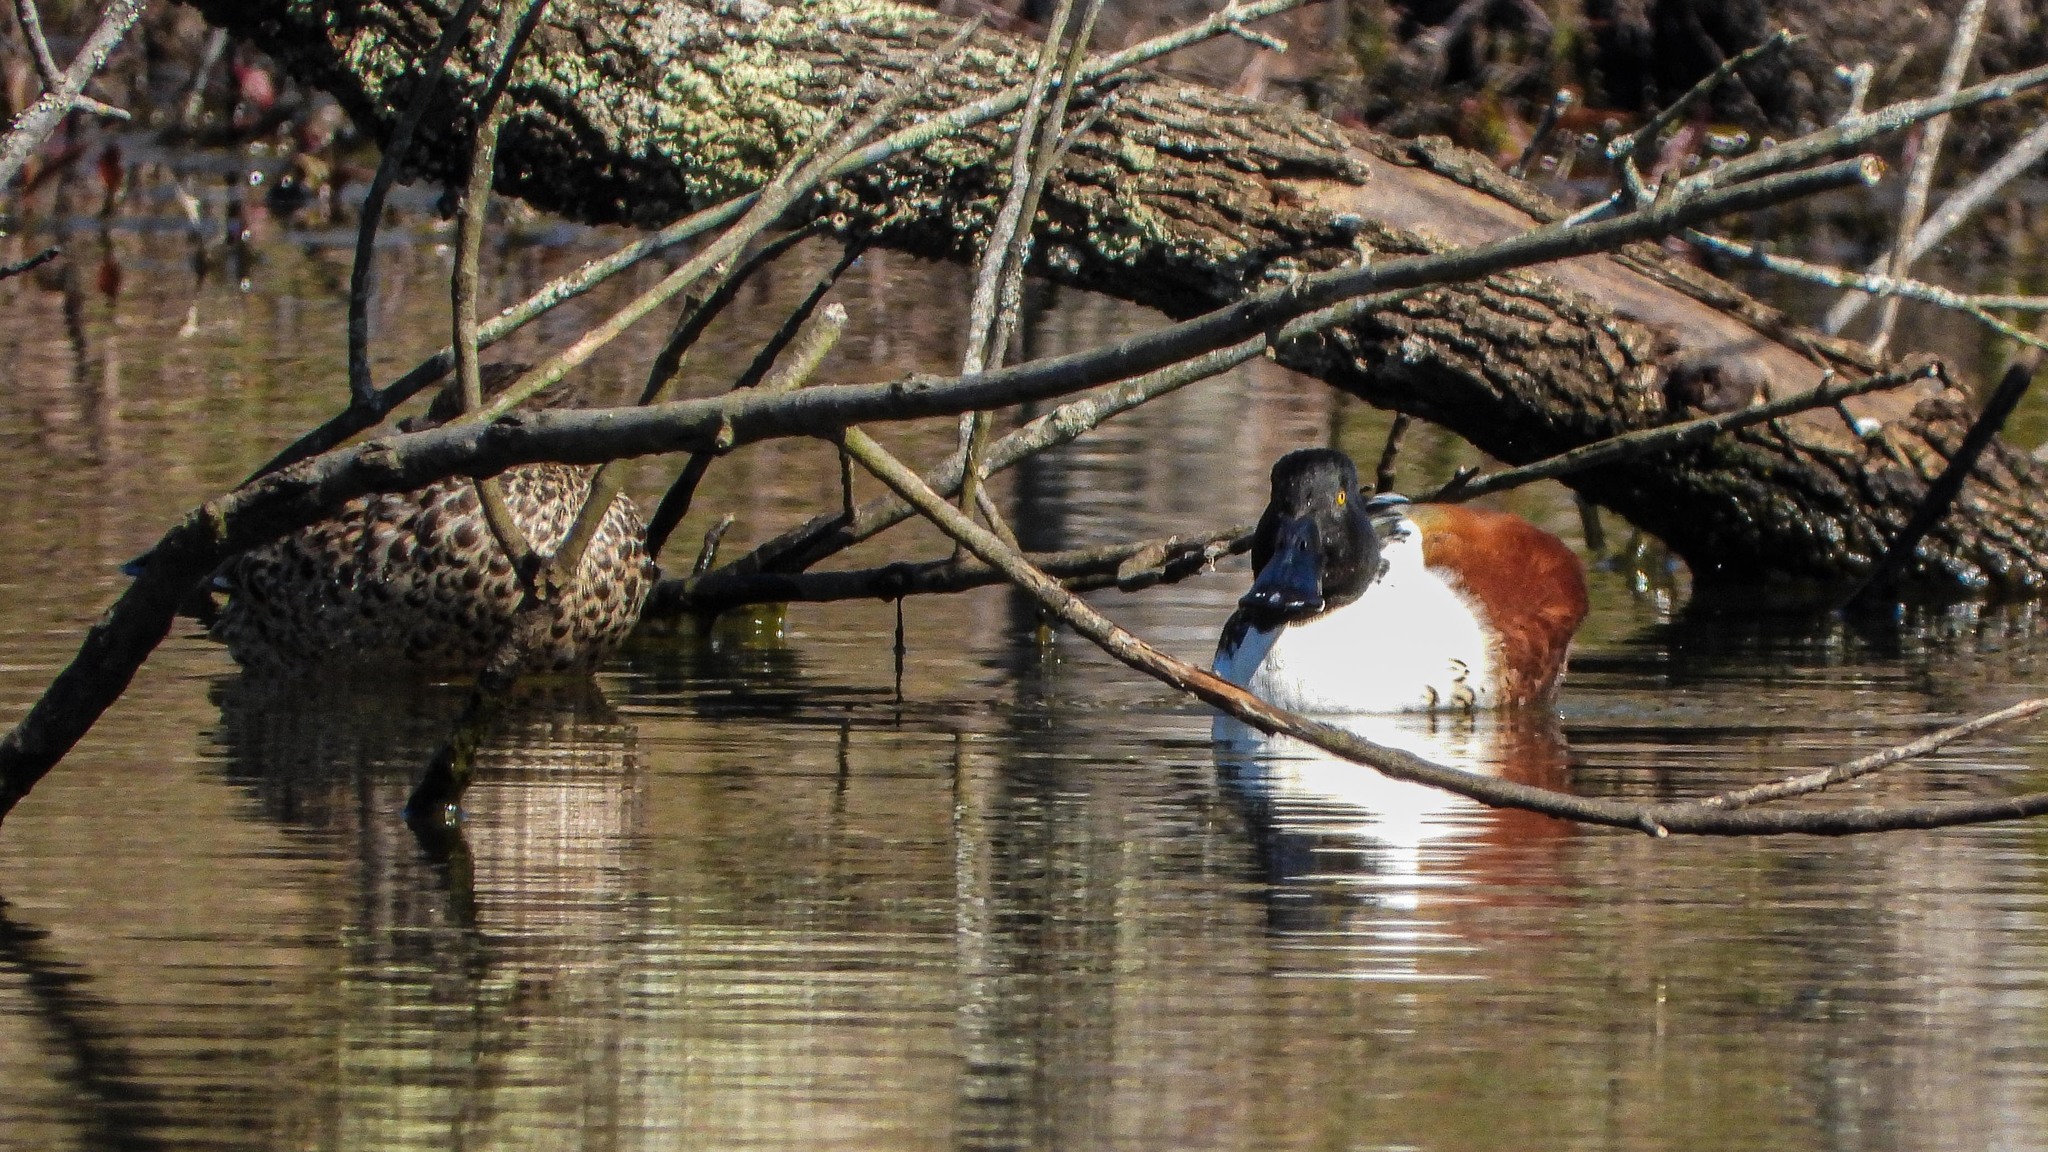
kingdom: Animalia
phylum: Chordata
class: Aves
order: Anseriformes
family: Anatidae
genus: Spatula
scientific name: Spatula clypeata
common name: Northern shoveler
